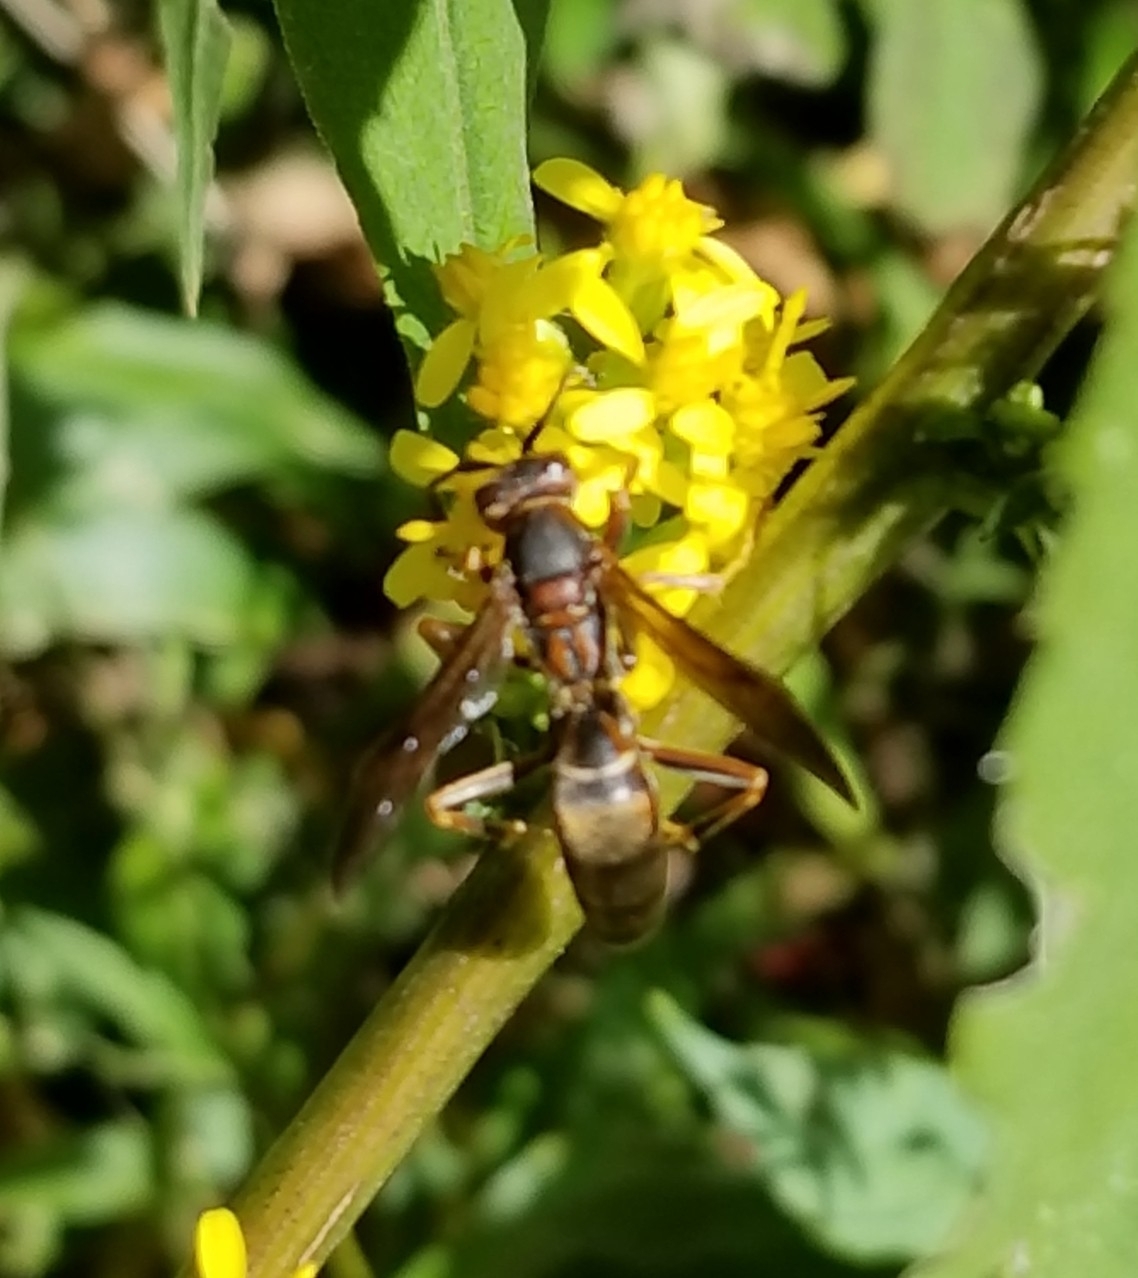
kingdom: Animalia
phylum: Arthropoda
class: Insecta
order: Hymenoptera
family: Eumenidae
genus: Polistes
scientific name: Polistes fuscatus
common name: Dark paper wasp
